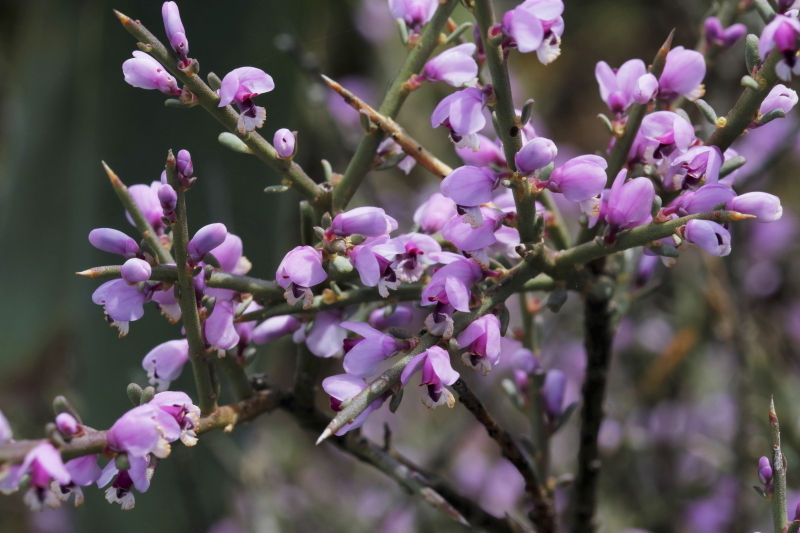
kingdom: Plantae
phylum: Tracheophyta
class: Magnoliopsida
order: Fabales
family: Polygalaceae
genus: Muraltia
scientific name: Muraltia spinosa
